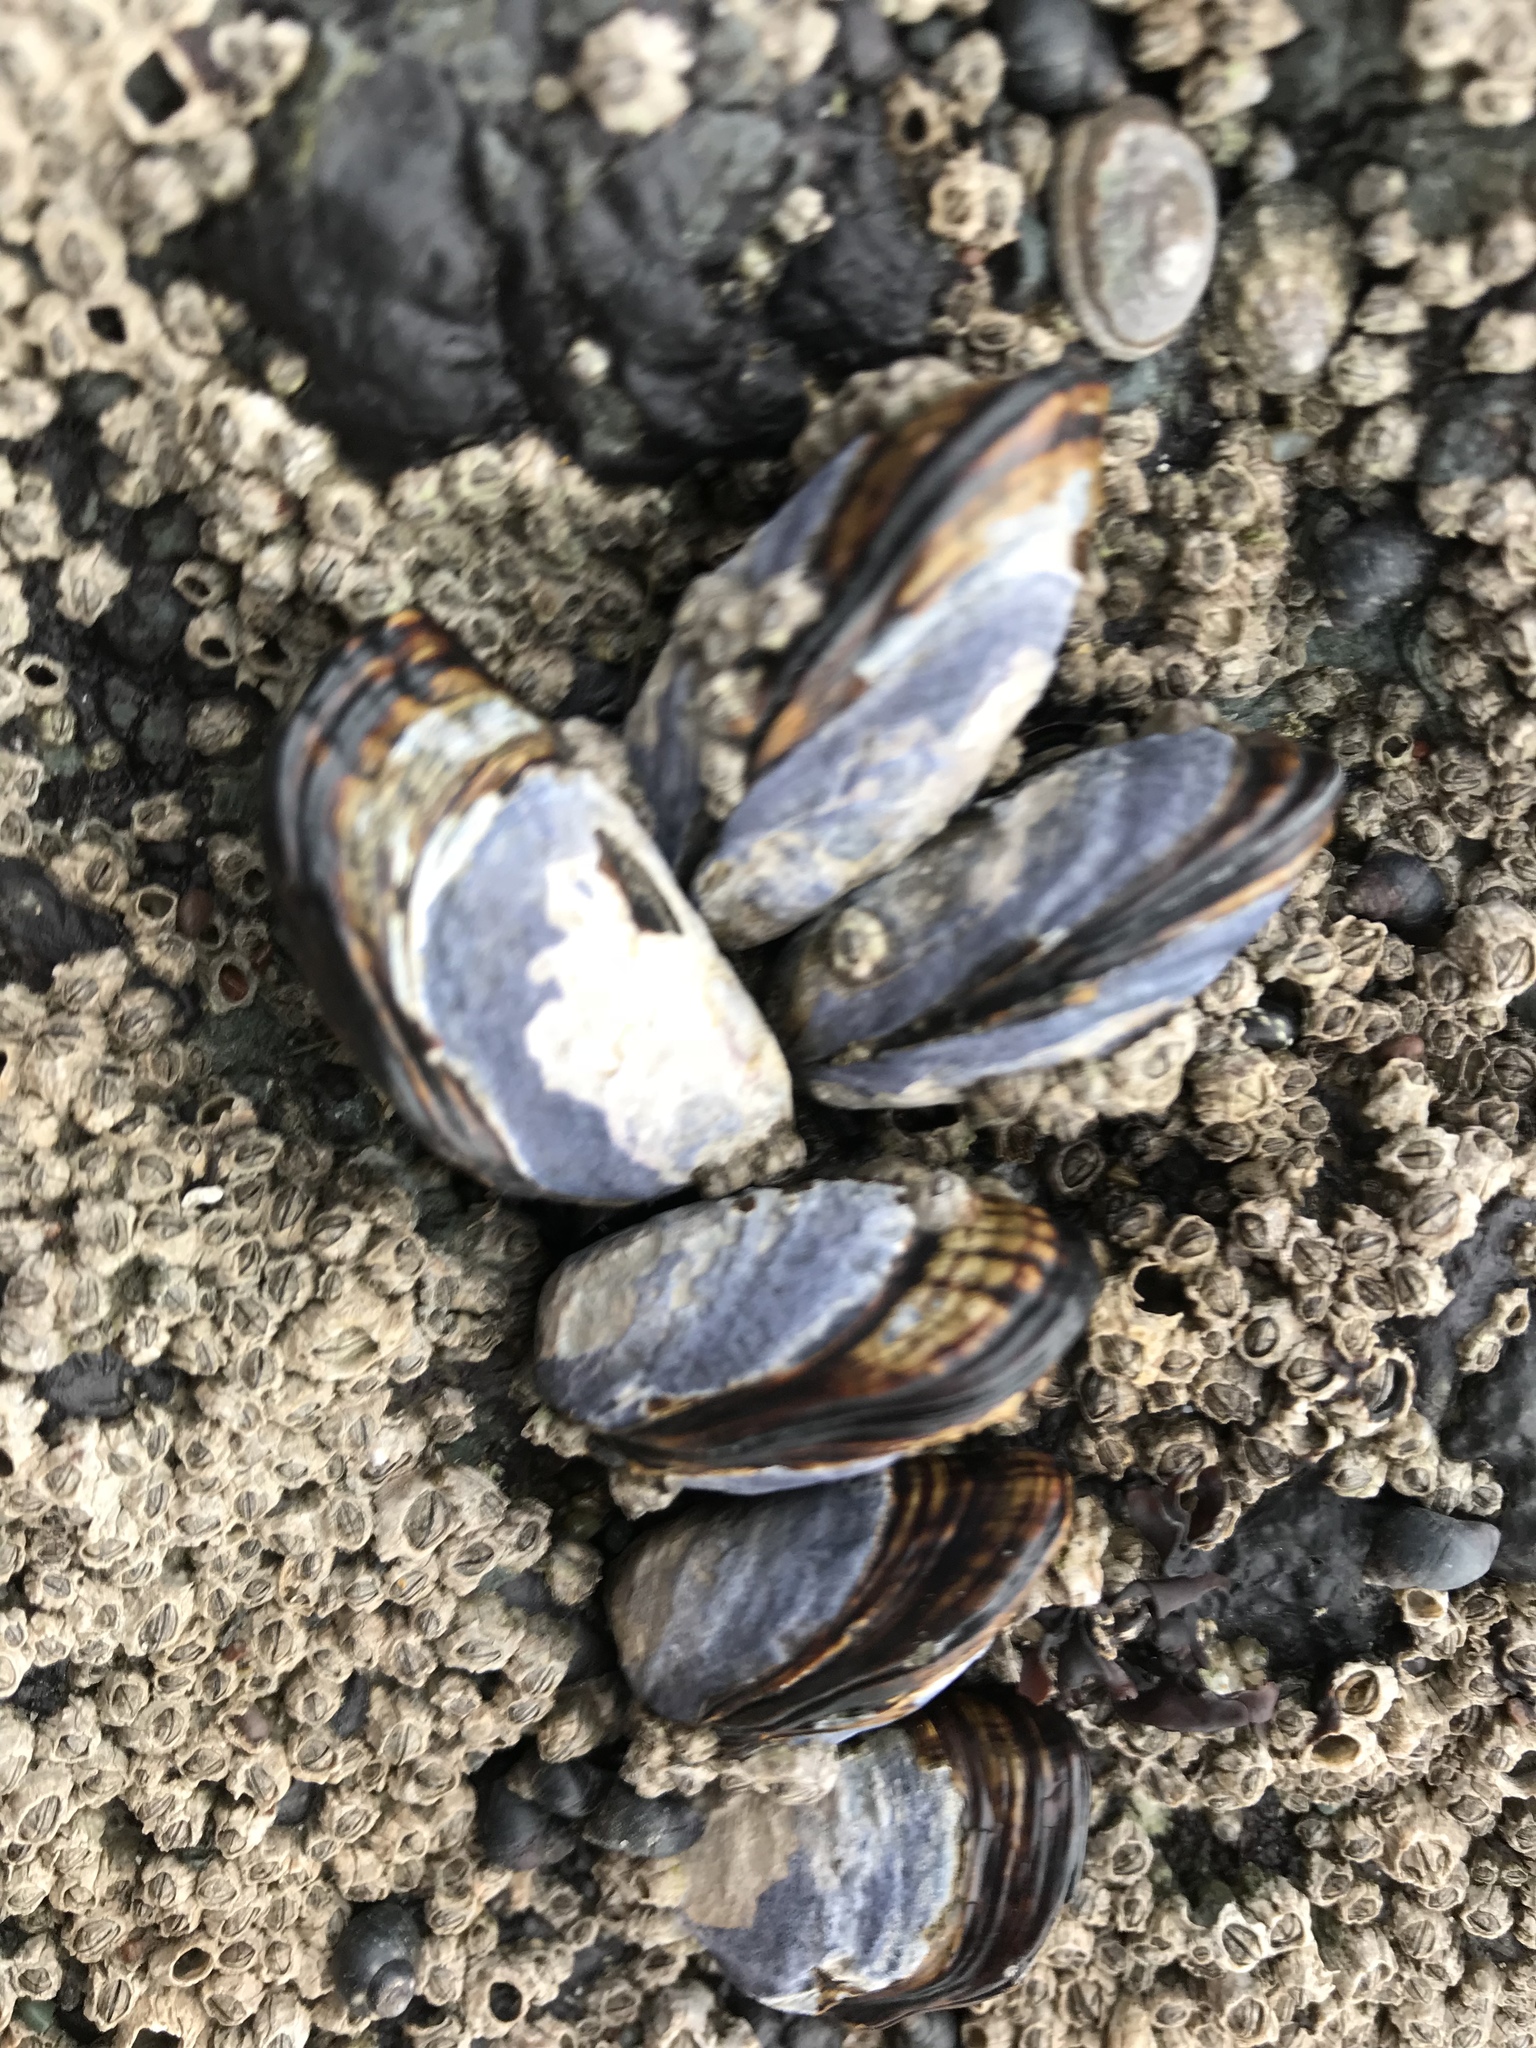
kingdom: Animalia
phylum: Mollusca
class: Bivalvia
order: Mytilida
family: Mytilidae
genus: Mytilus
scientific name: Mytilus californianus
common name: California mussel
